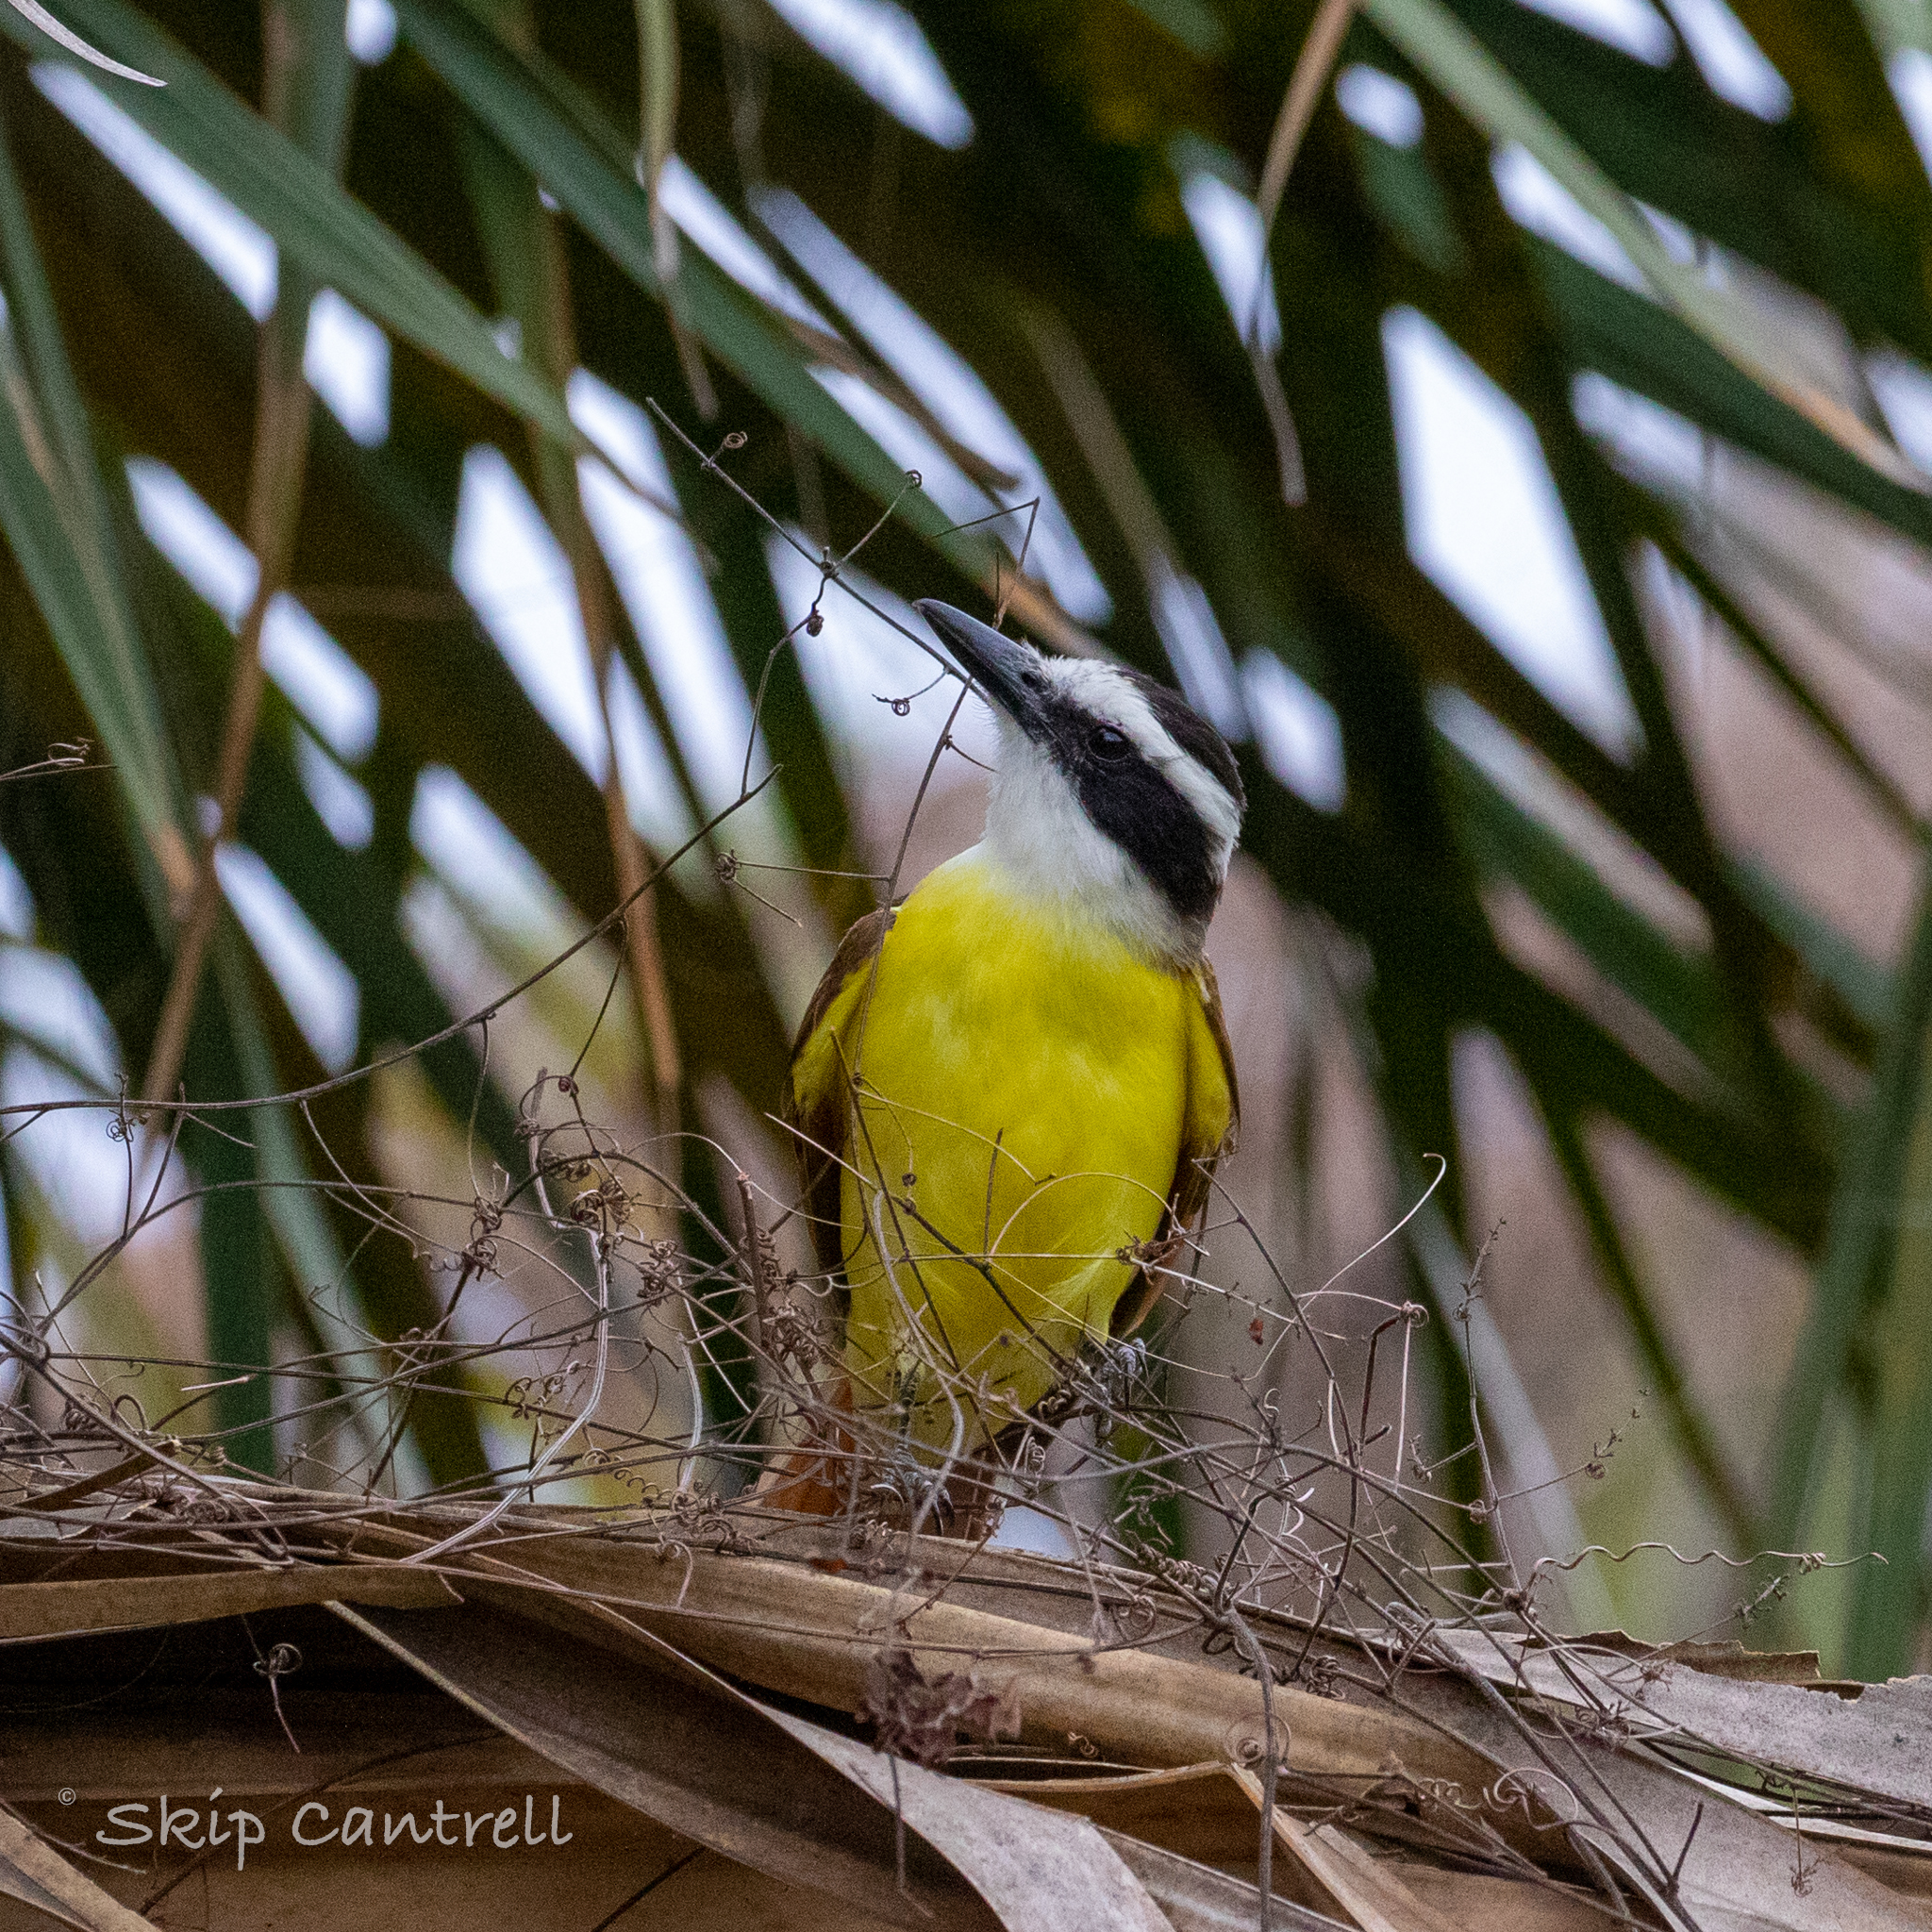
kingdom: Animalia
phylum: Chordata
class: Aves
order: Passeriformes
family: Tyrannidae
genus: Pitangus
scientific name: Pitangus sulphuratus
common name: Great kiskadee
